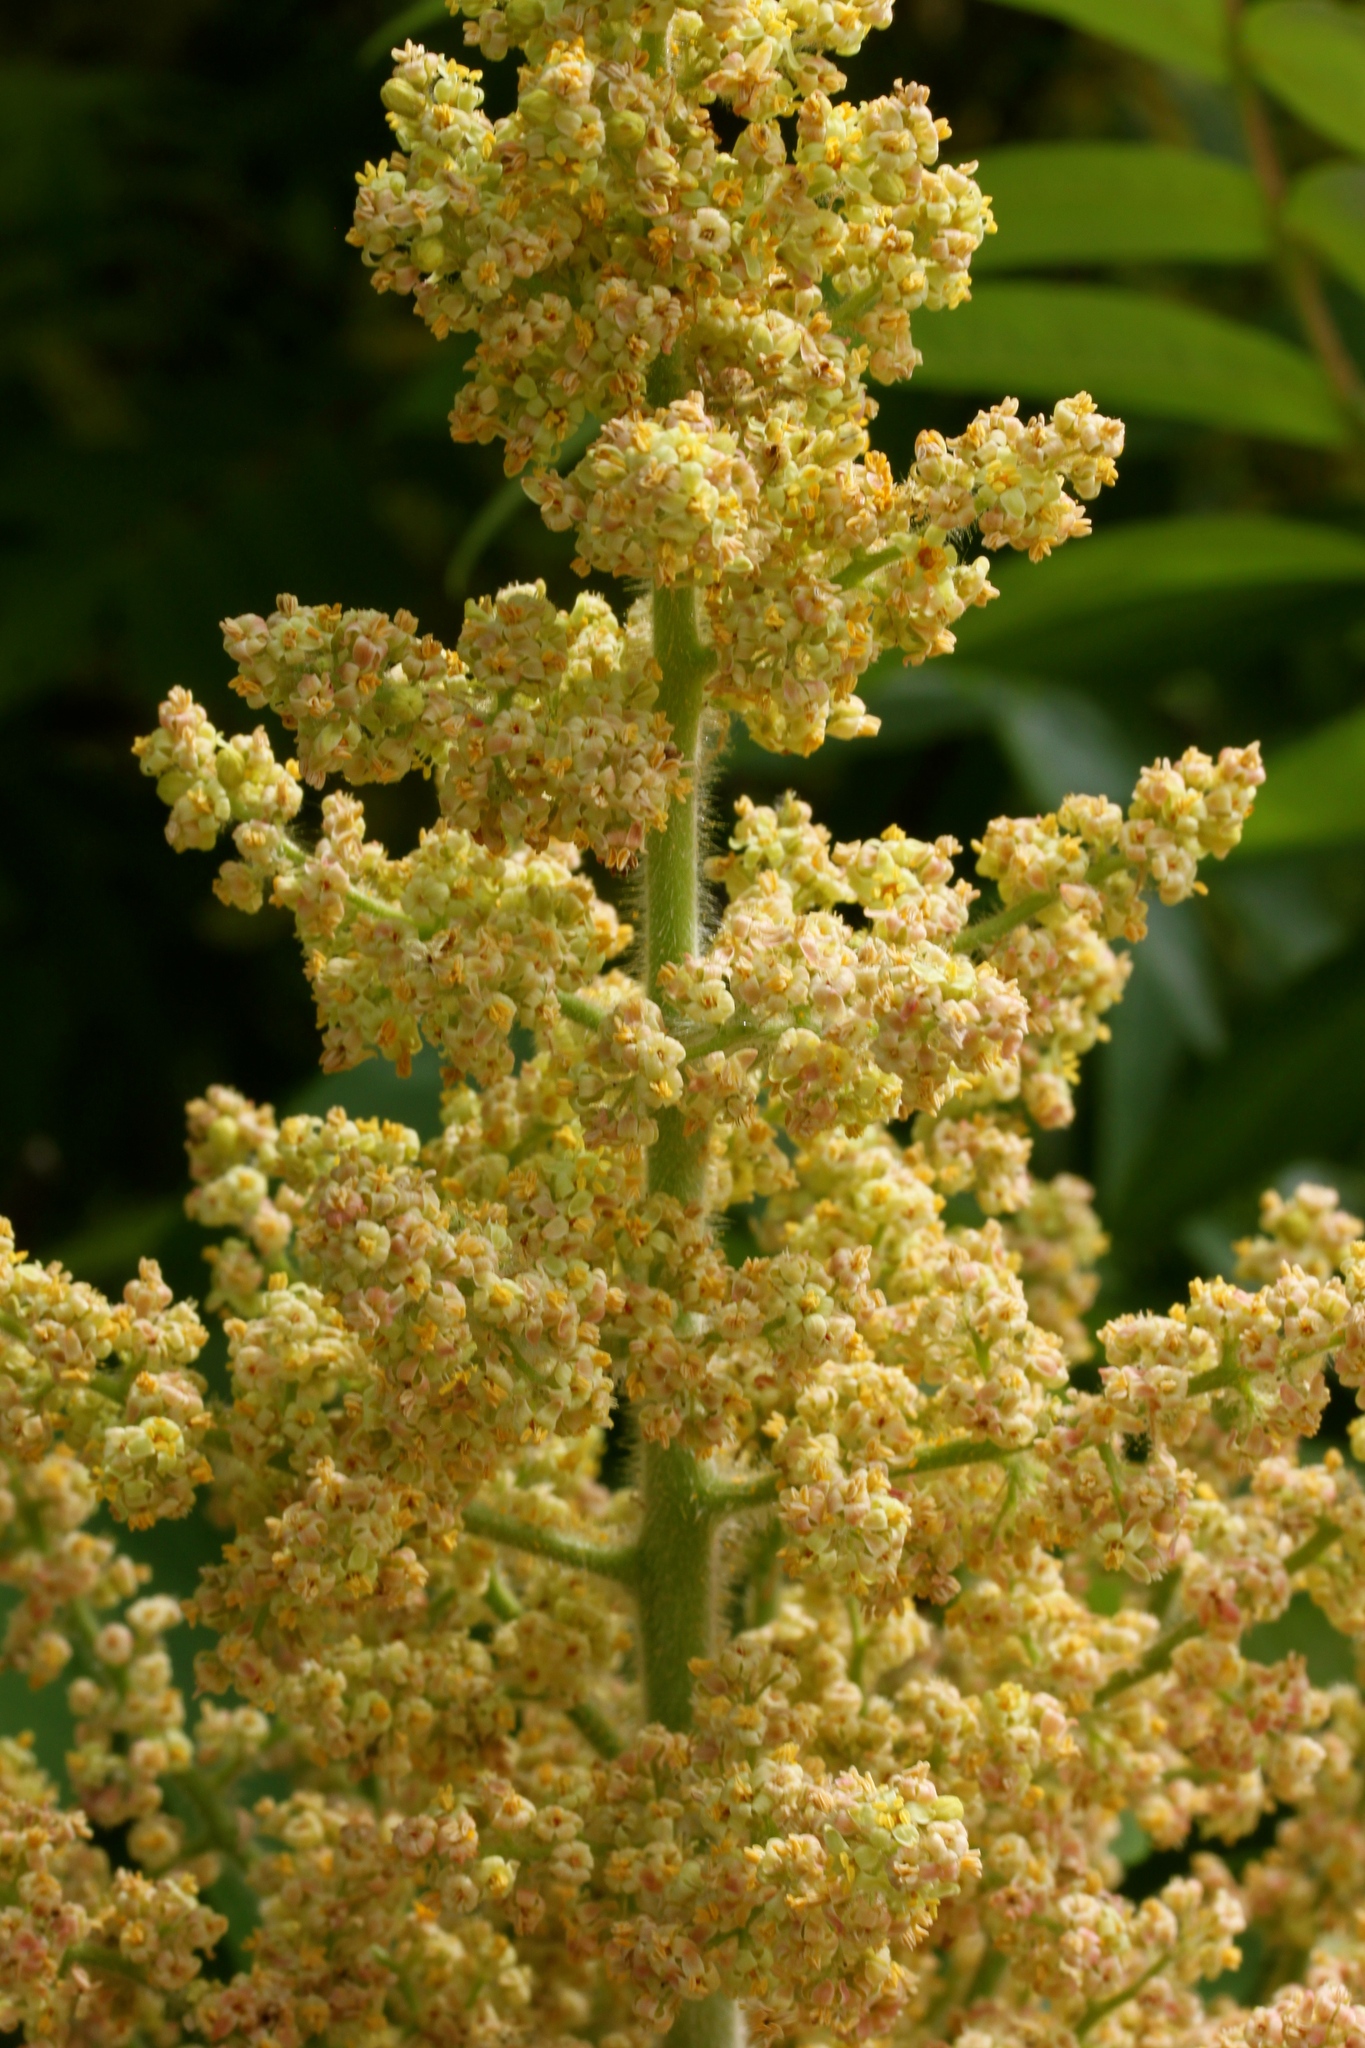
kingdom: Plantae
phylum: Tracheophyta
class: Magnoliopsida
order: Sapindales
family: Anacardiaceae
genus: Rhus
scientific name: Rhus typhina
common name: Staghorn sumac
